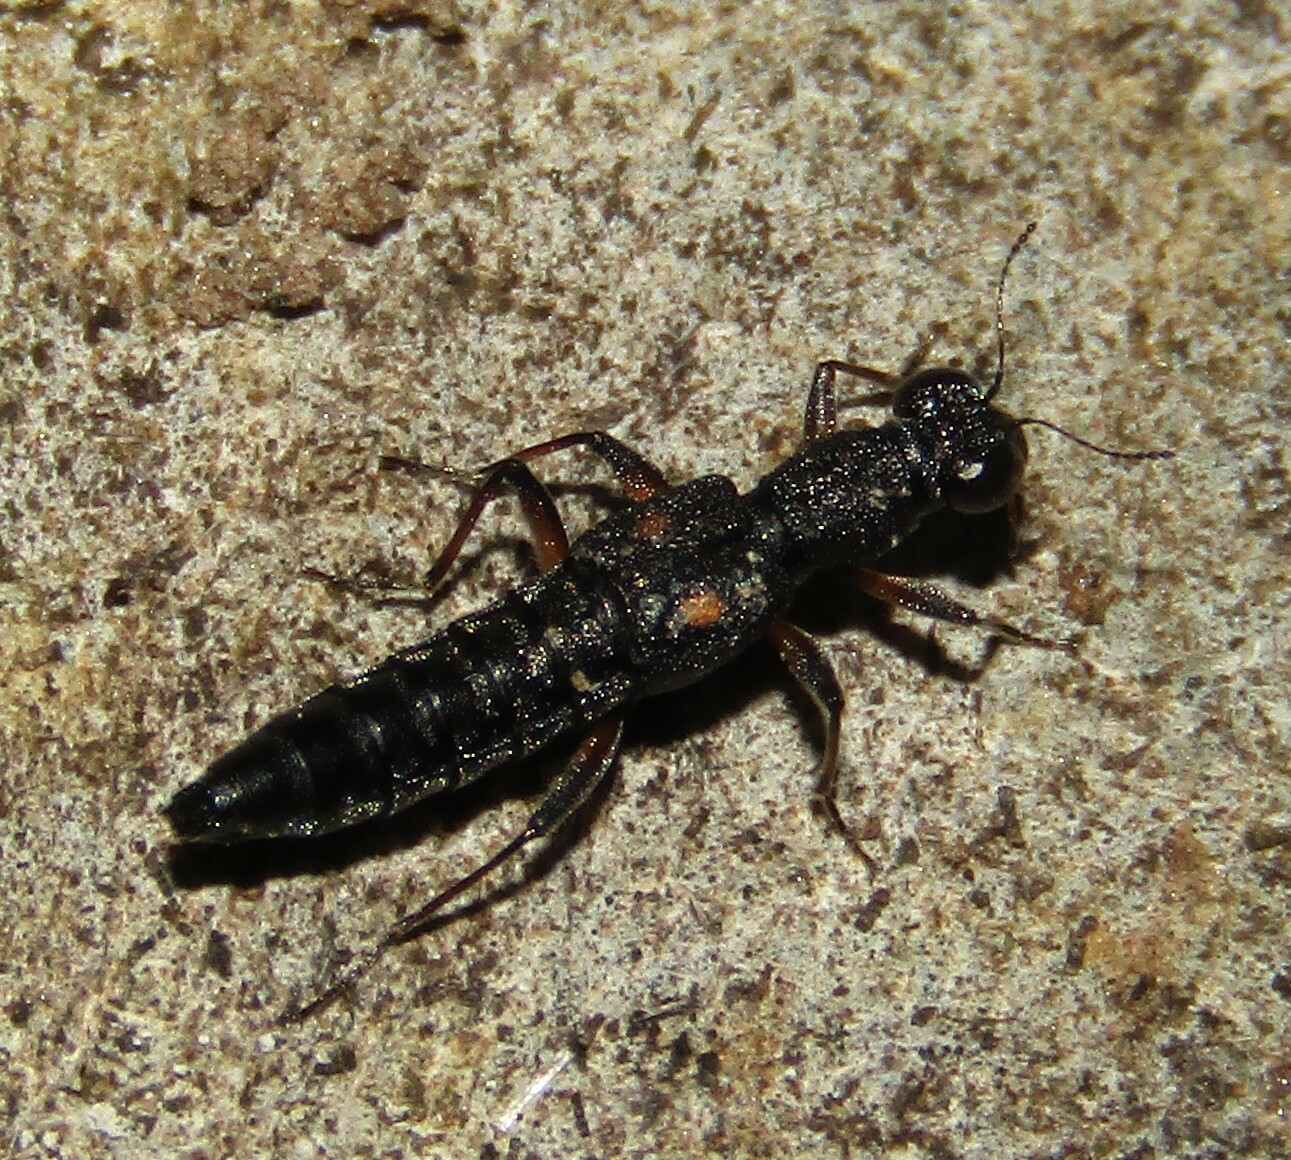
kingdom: Animalia
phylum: Arthropoda
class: Insecta
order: Coleoptera
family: Staphylinidae
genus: Stenus
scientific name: Stenus bimaculatus
